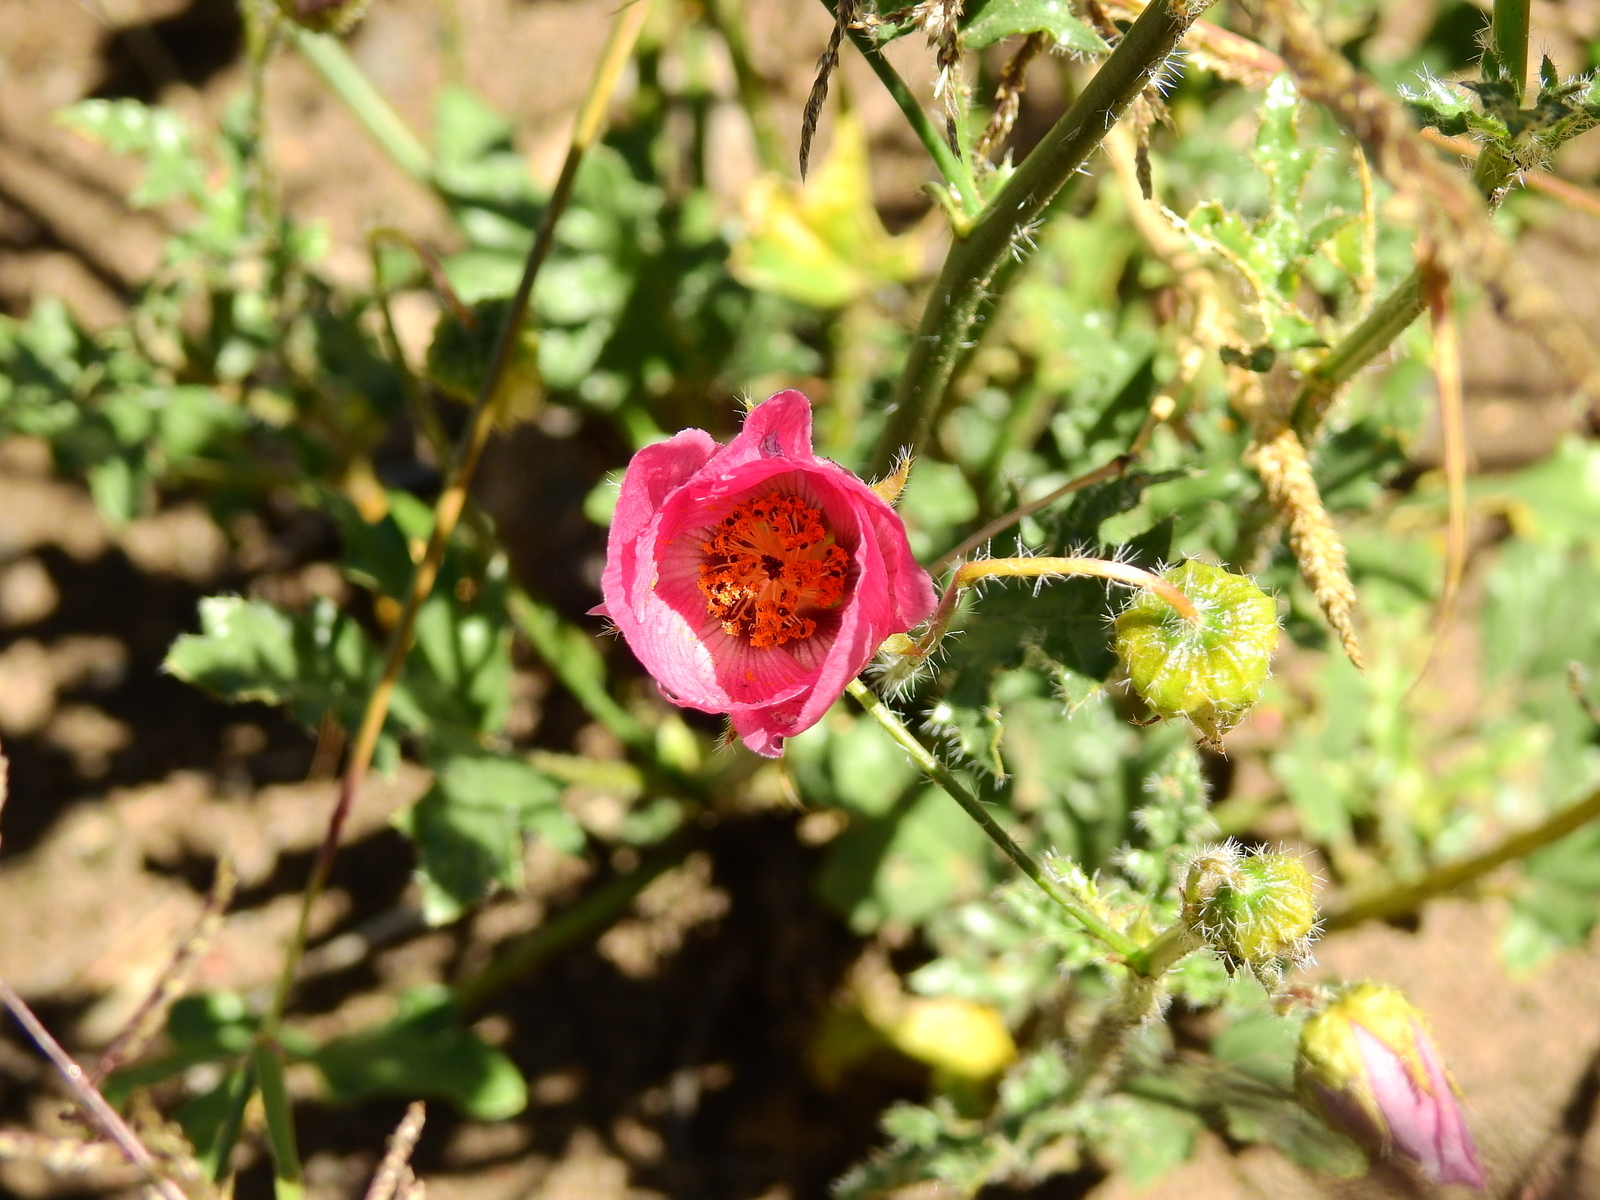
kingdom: Plantae
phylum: Tracheophyta
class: Magnoliopsida
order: Malvales
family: Malvaceae
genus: Lecanophora
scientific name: Lecanophora heterophylla
